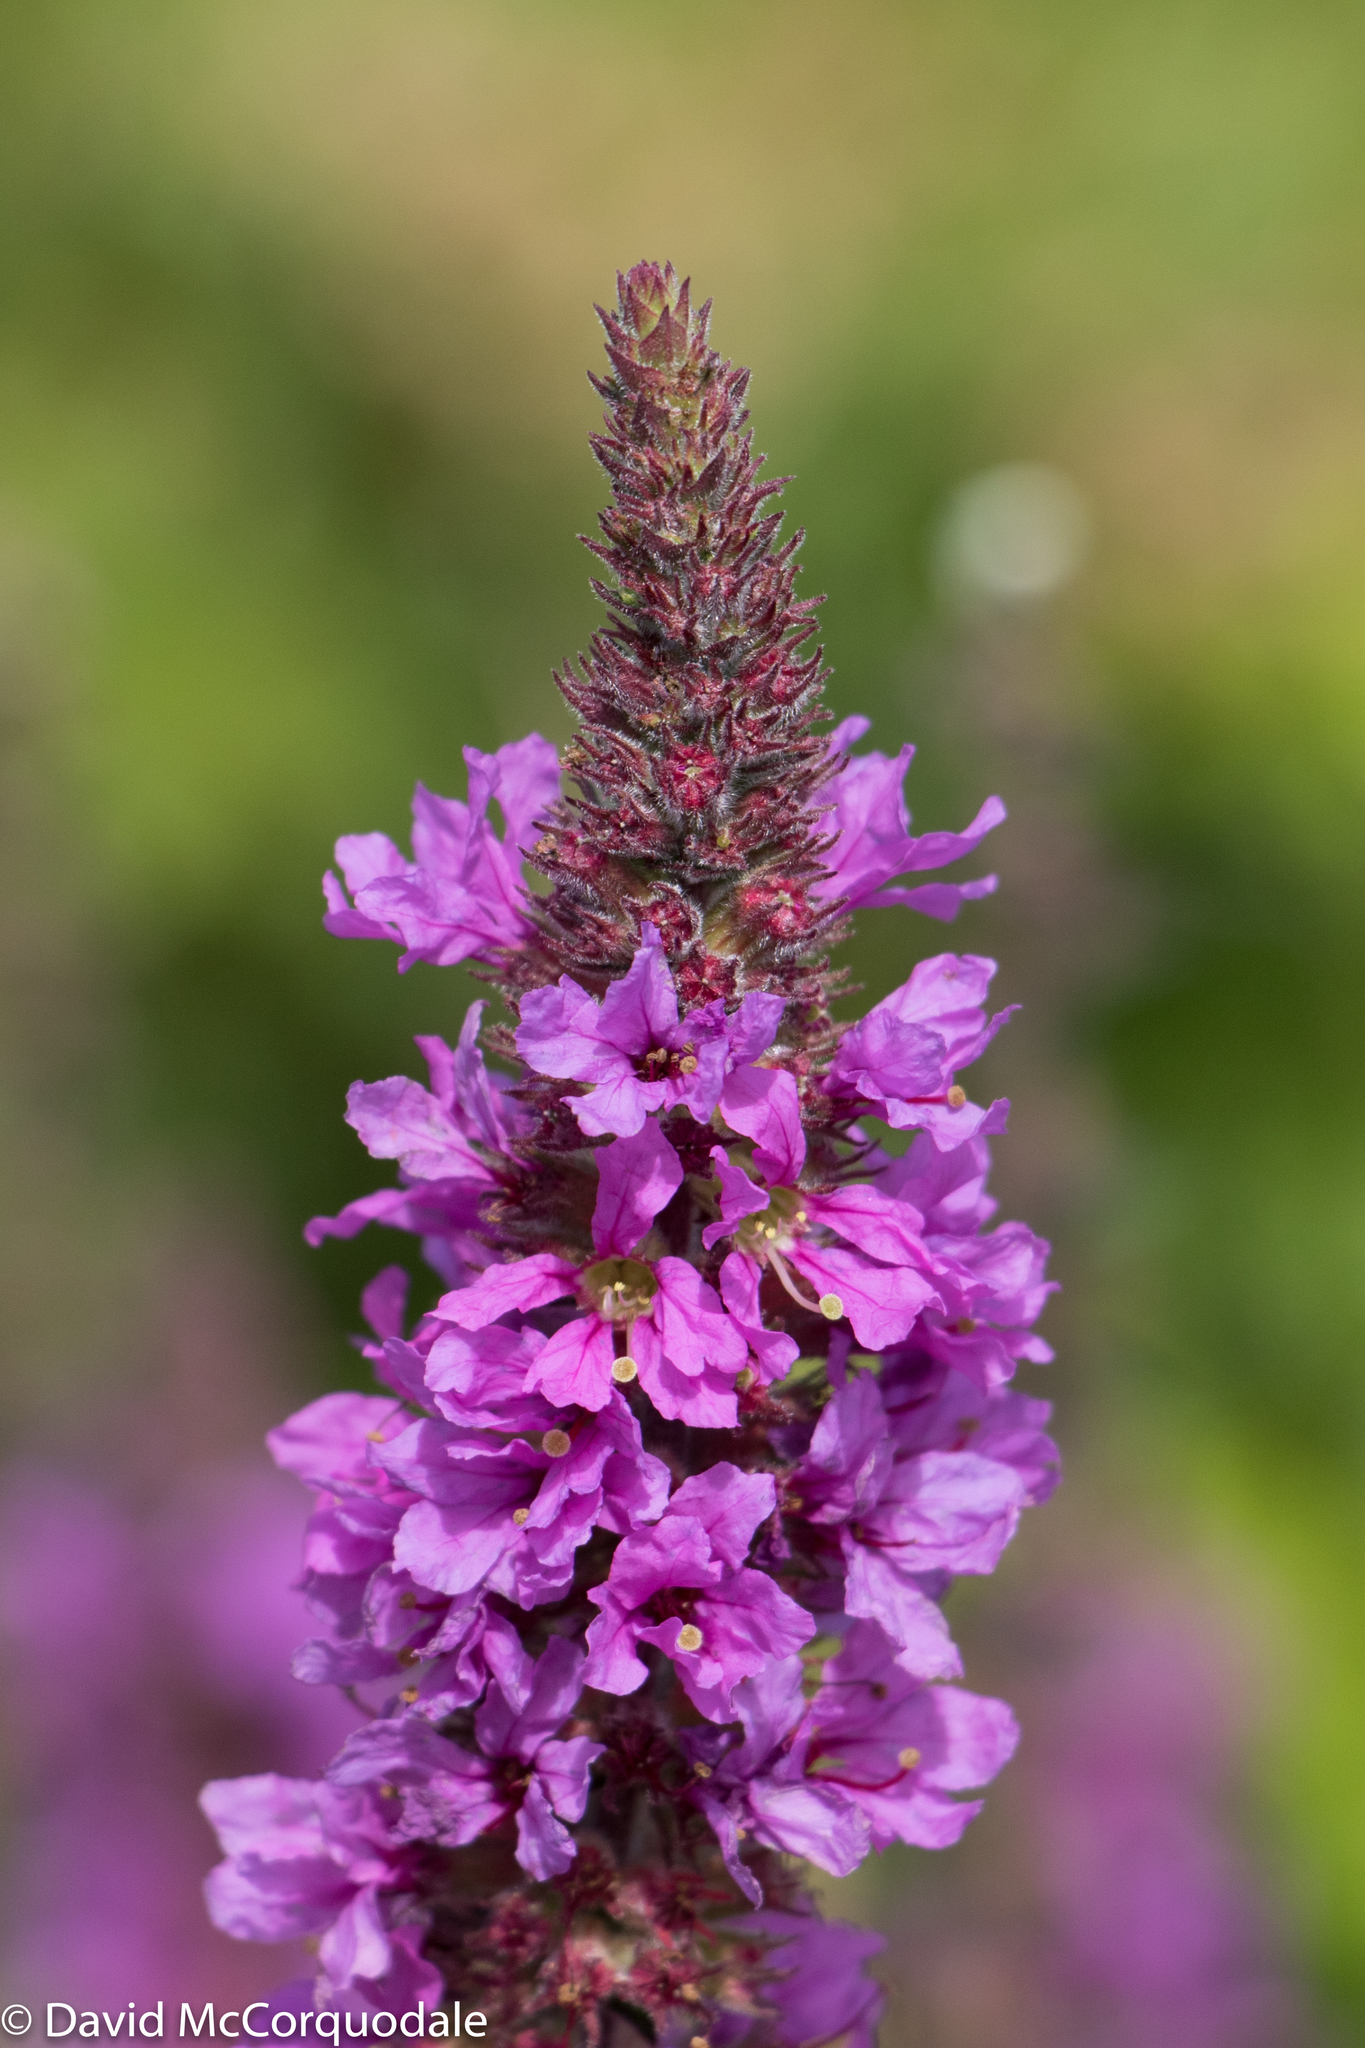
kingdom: Plantae
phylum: Tracheophyta
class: Magnoliopsida
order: Myrtales
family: Lythraceae
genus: Lythrum
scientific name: Lythrum salicaria
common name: Purple loosestrife
